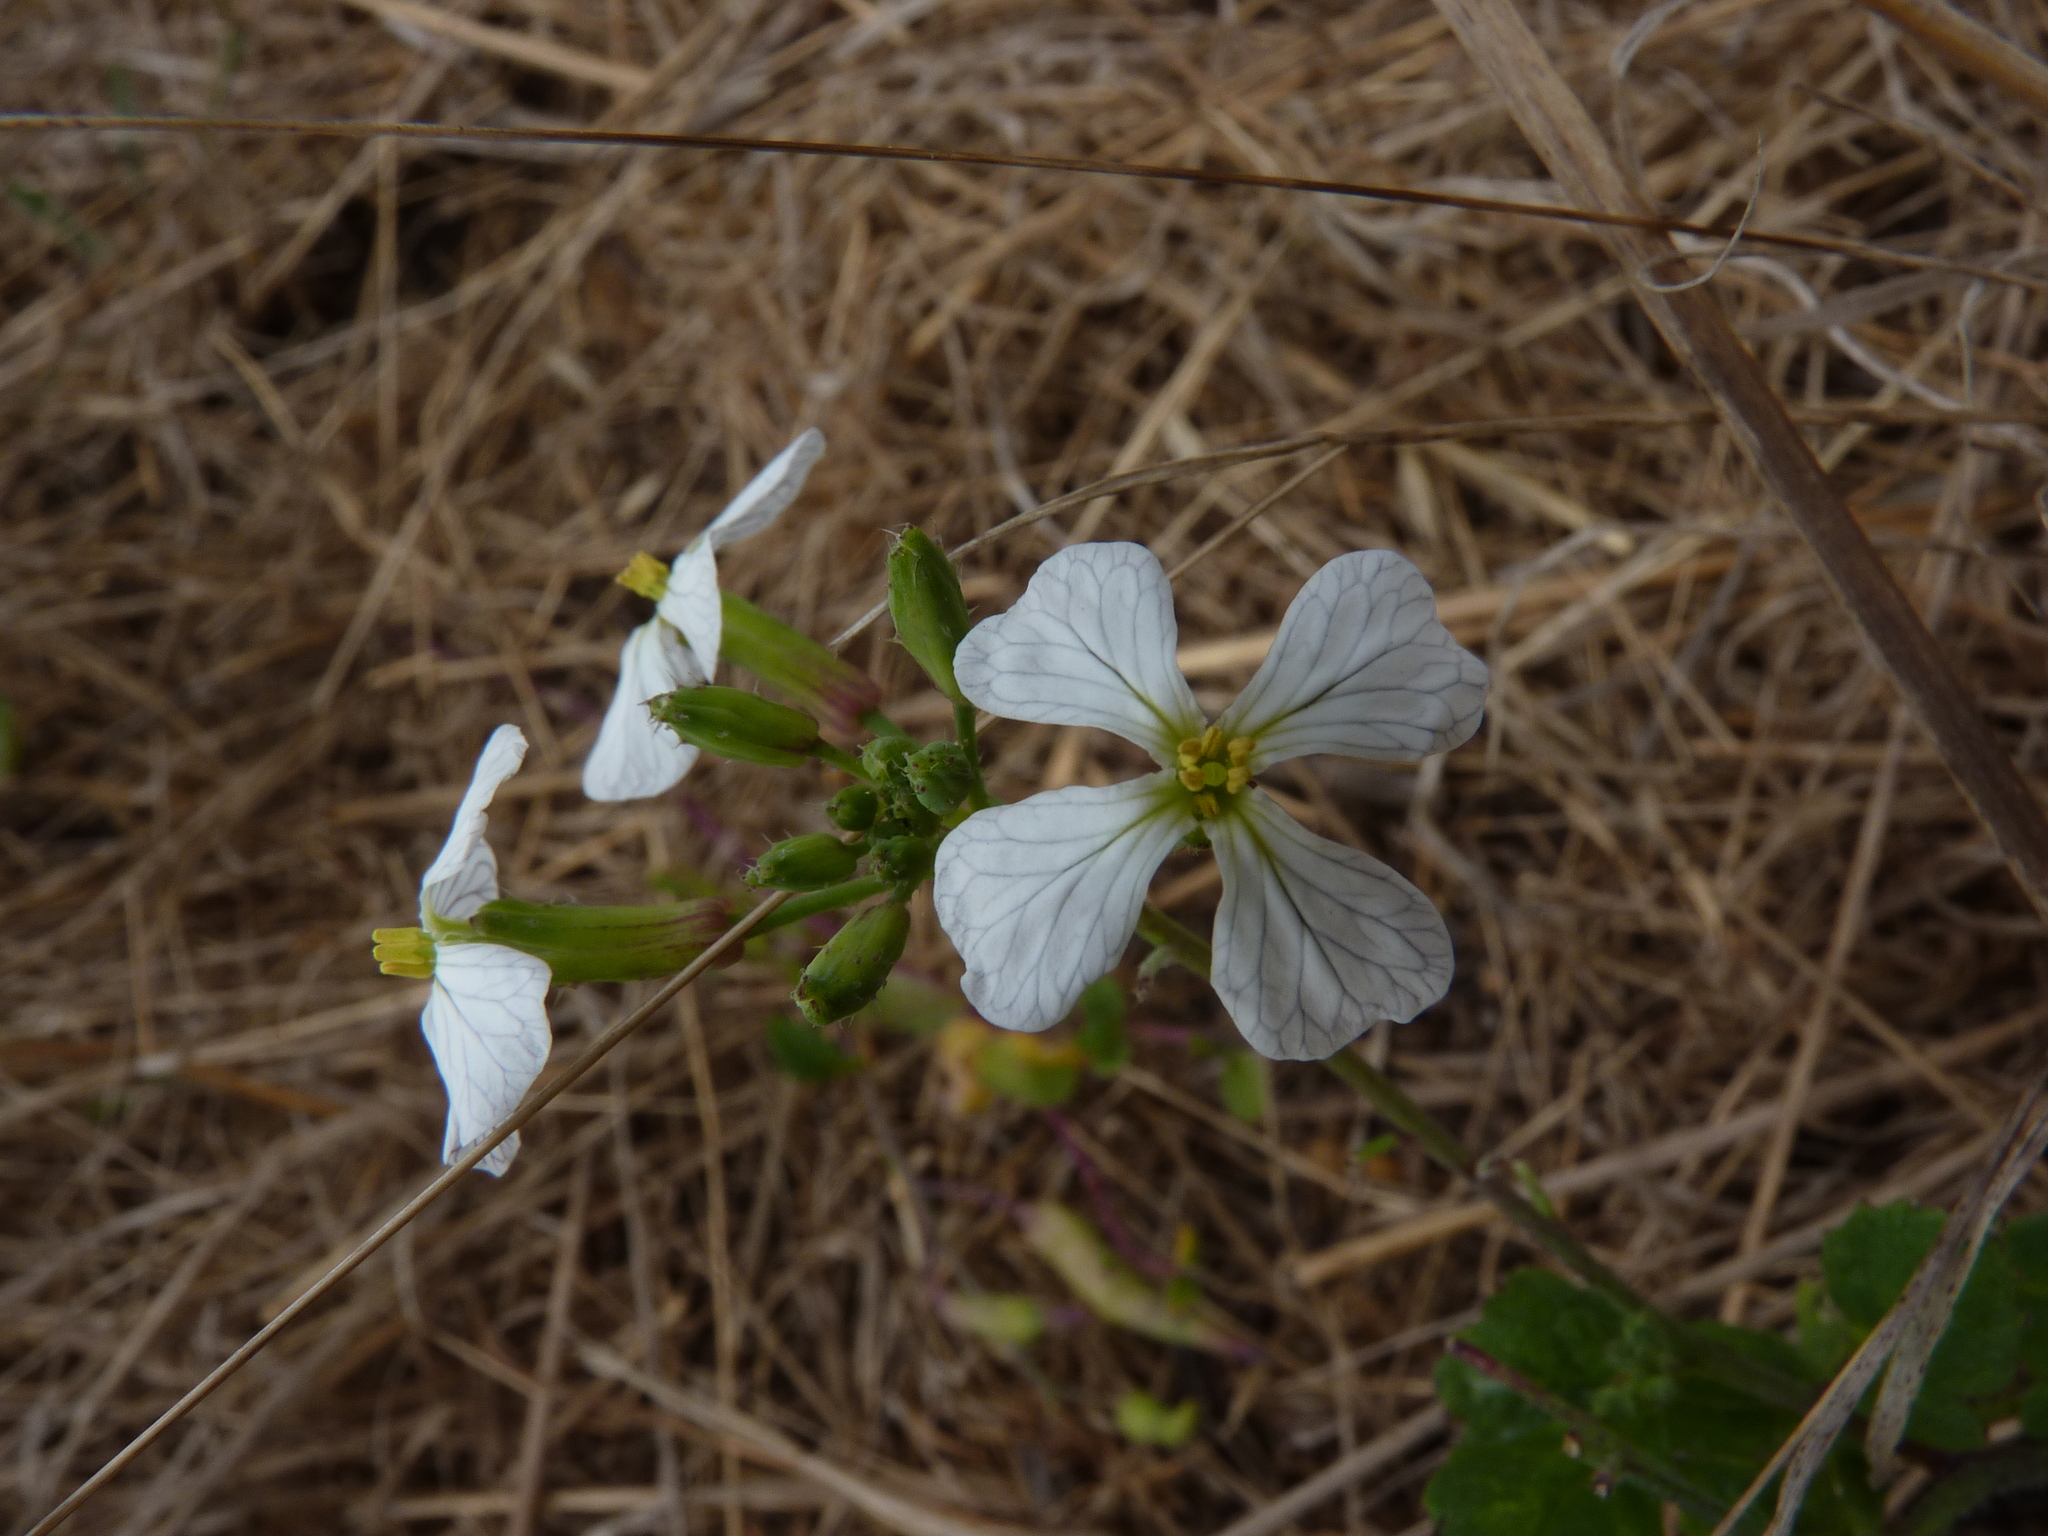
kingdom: Plantae
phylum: Tracheophyta
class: Magnoliopsida
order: Brassicales
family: Brassicaceae
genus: Raphanus
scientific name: Raphanus sativus
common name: Cultivated radish
